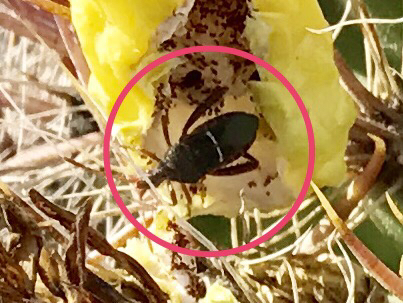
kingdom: Animalia
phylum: Arthropoda
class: Insecta
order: Hemiptera
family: Coreidae
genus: Narnia
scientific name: Narnia wilsoni
